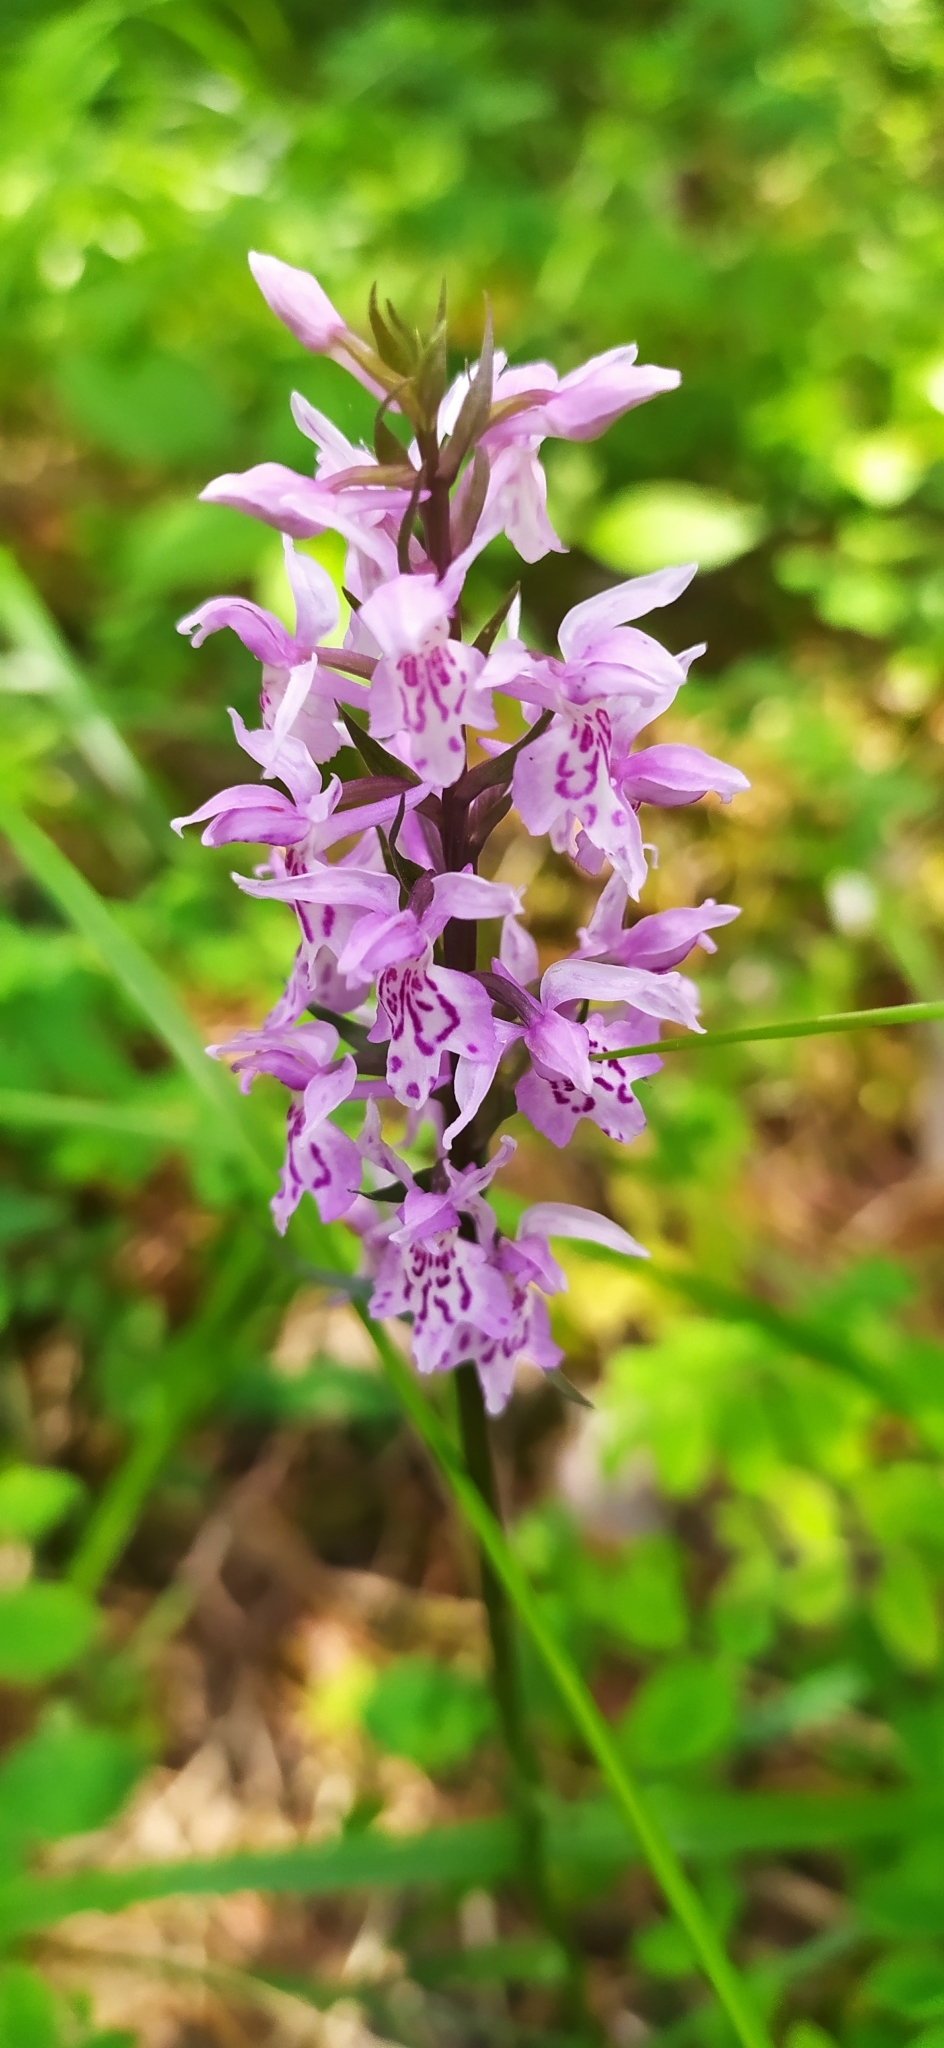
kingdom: Plantae
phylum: Tracheophyta
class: Liliopsida
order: Asparagales
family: Orchidaceae
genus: Dactylorhiza
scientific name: Dactylorhiza maculata
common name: Heath spotted-orchid
